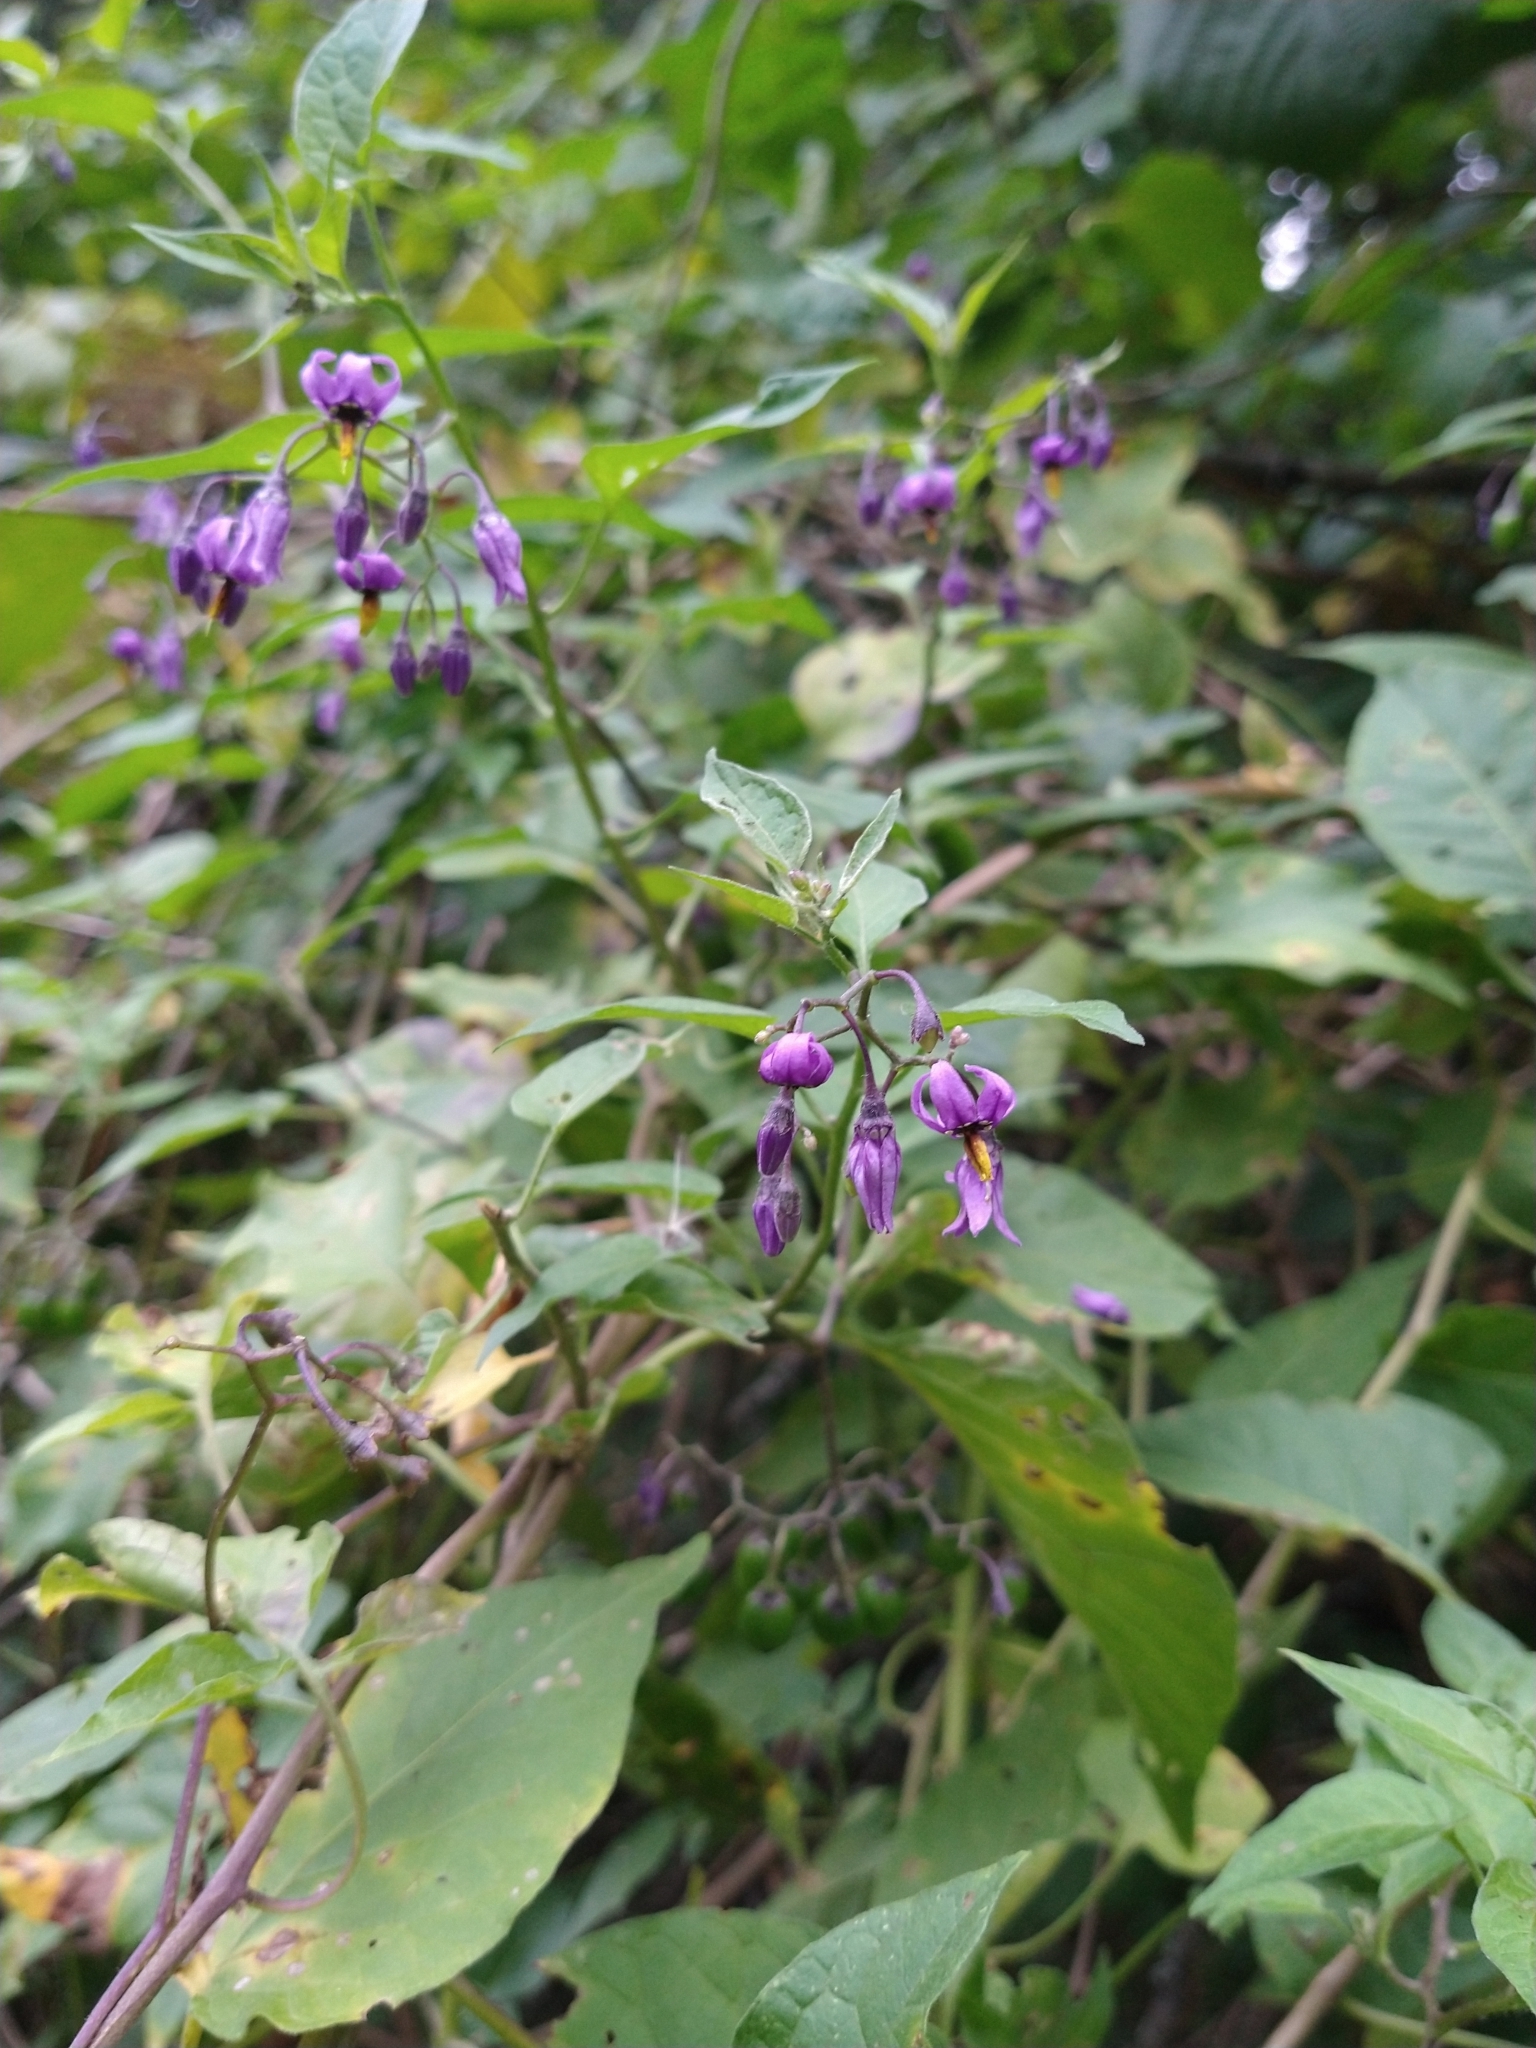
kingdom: Plantae
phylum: Tracheophyta
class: Magnoliopsida
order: Solanales
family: Solanaceae
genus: Solanum
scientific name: Solanum dulcamara
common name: Climbing nightshade
